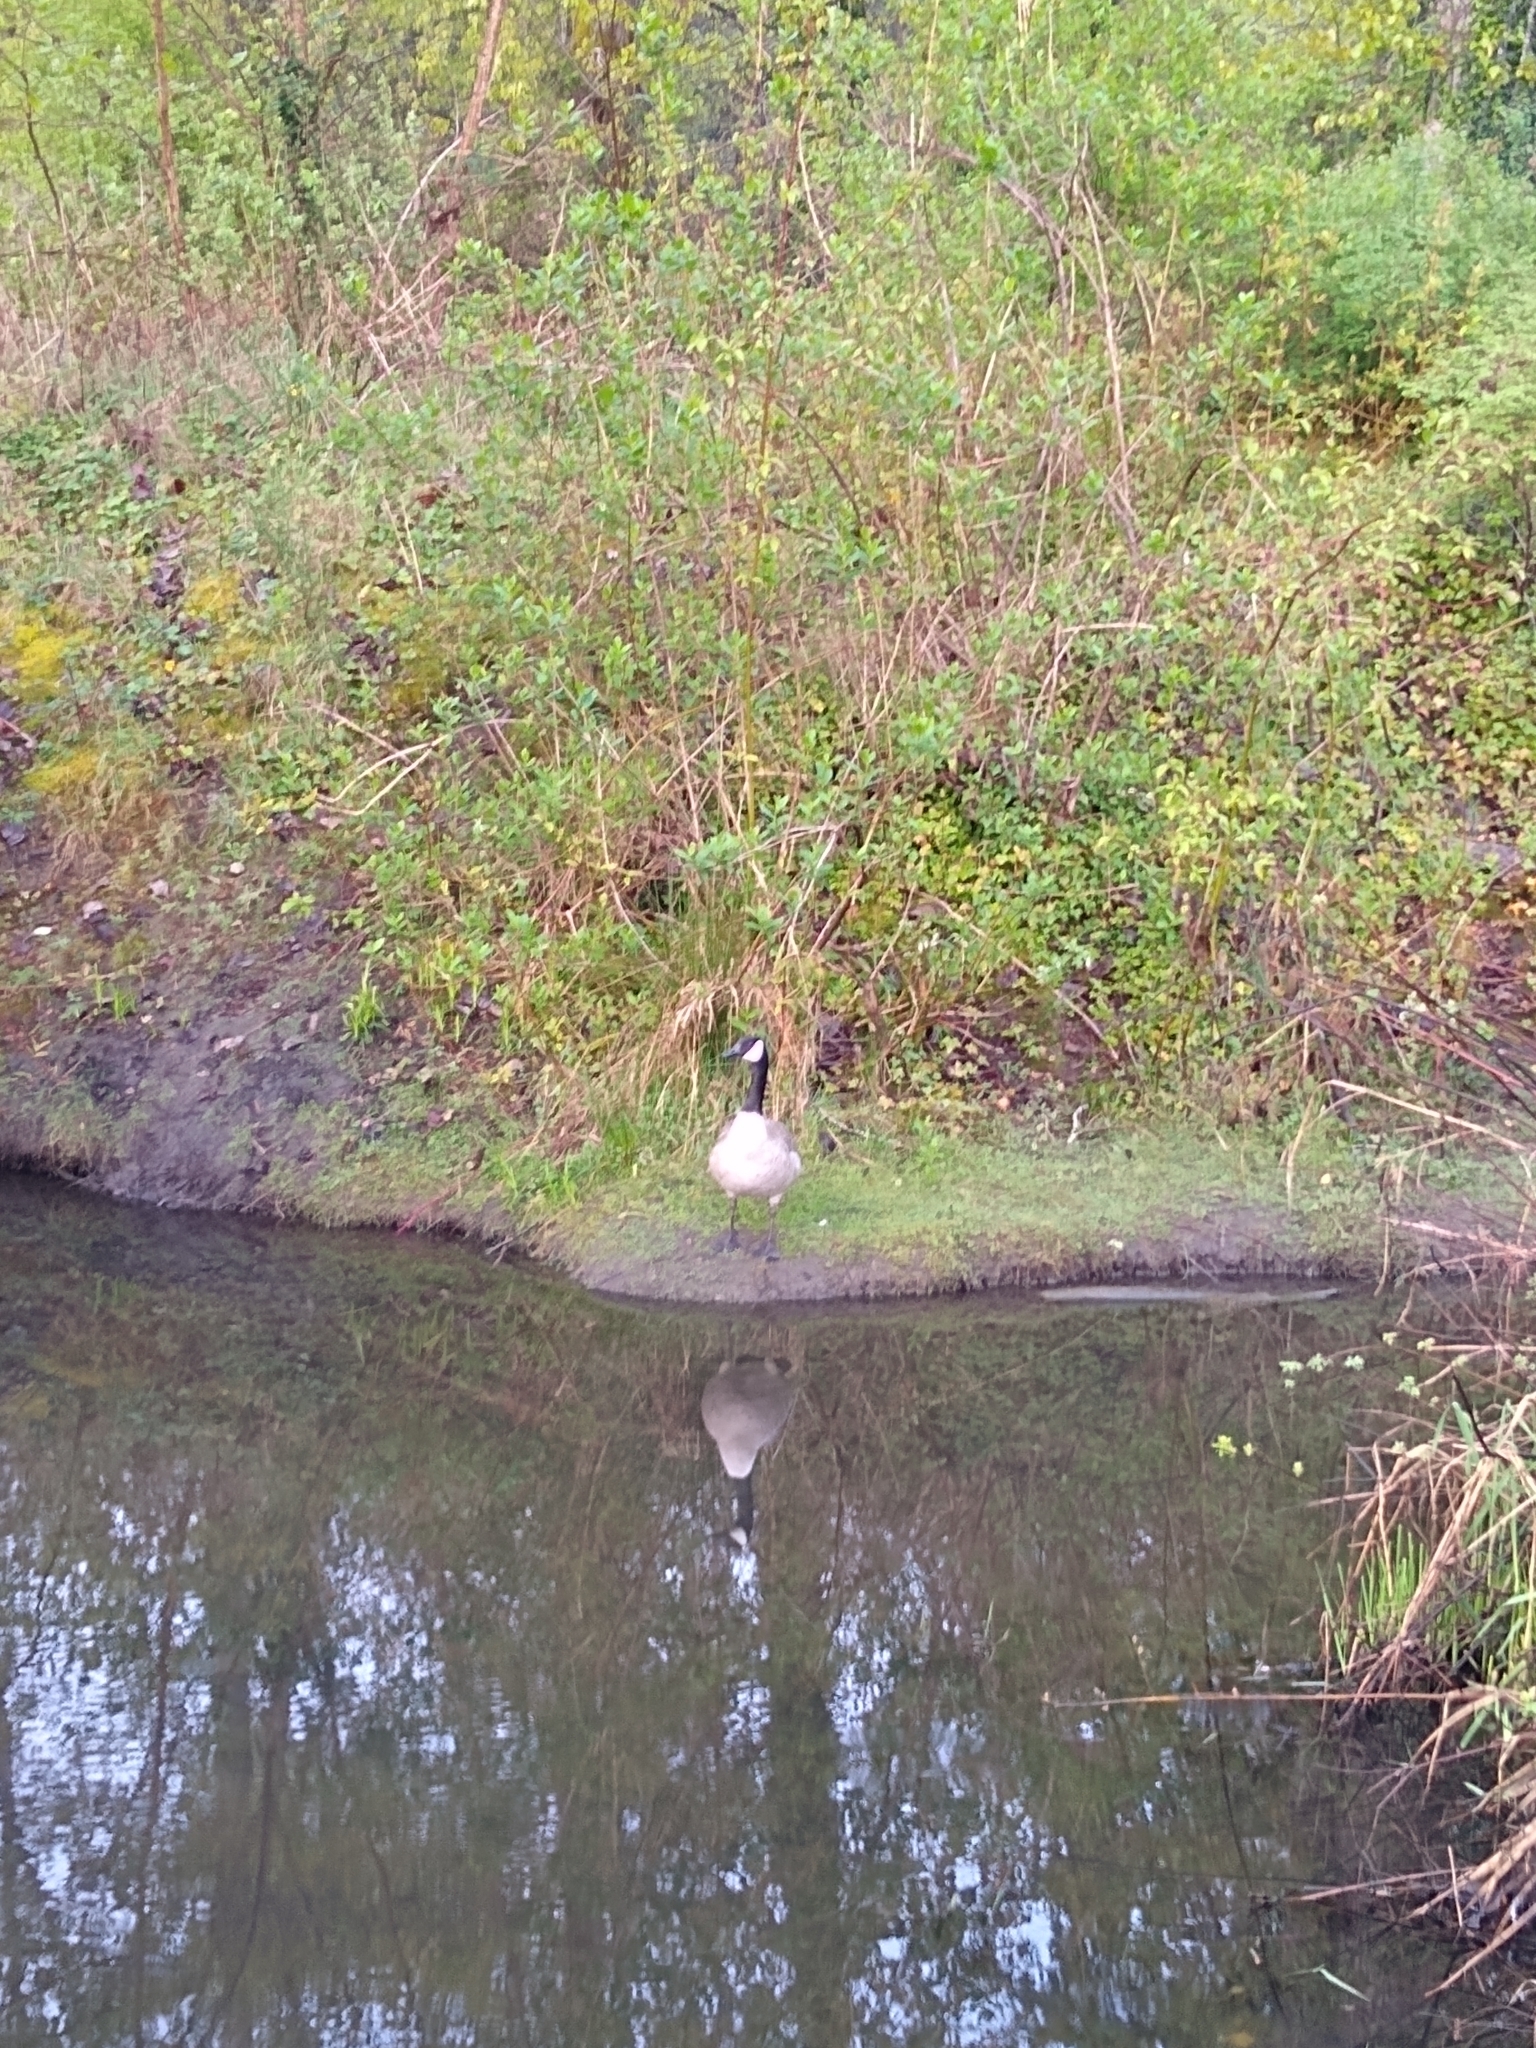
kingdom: Animalia
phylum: Chordata
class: Aves
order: Anseriformes
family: Anatidae
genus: Branta
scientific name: Branta canadensis
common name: Canada goose
